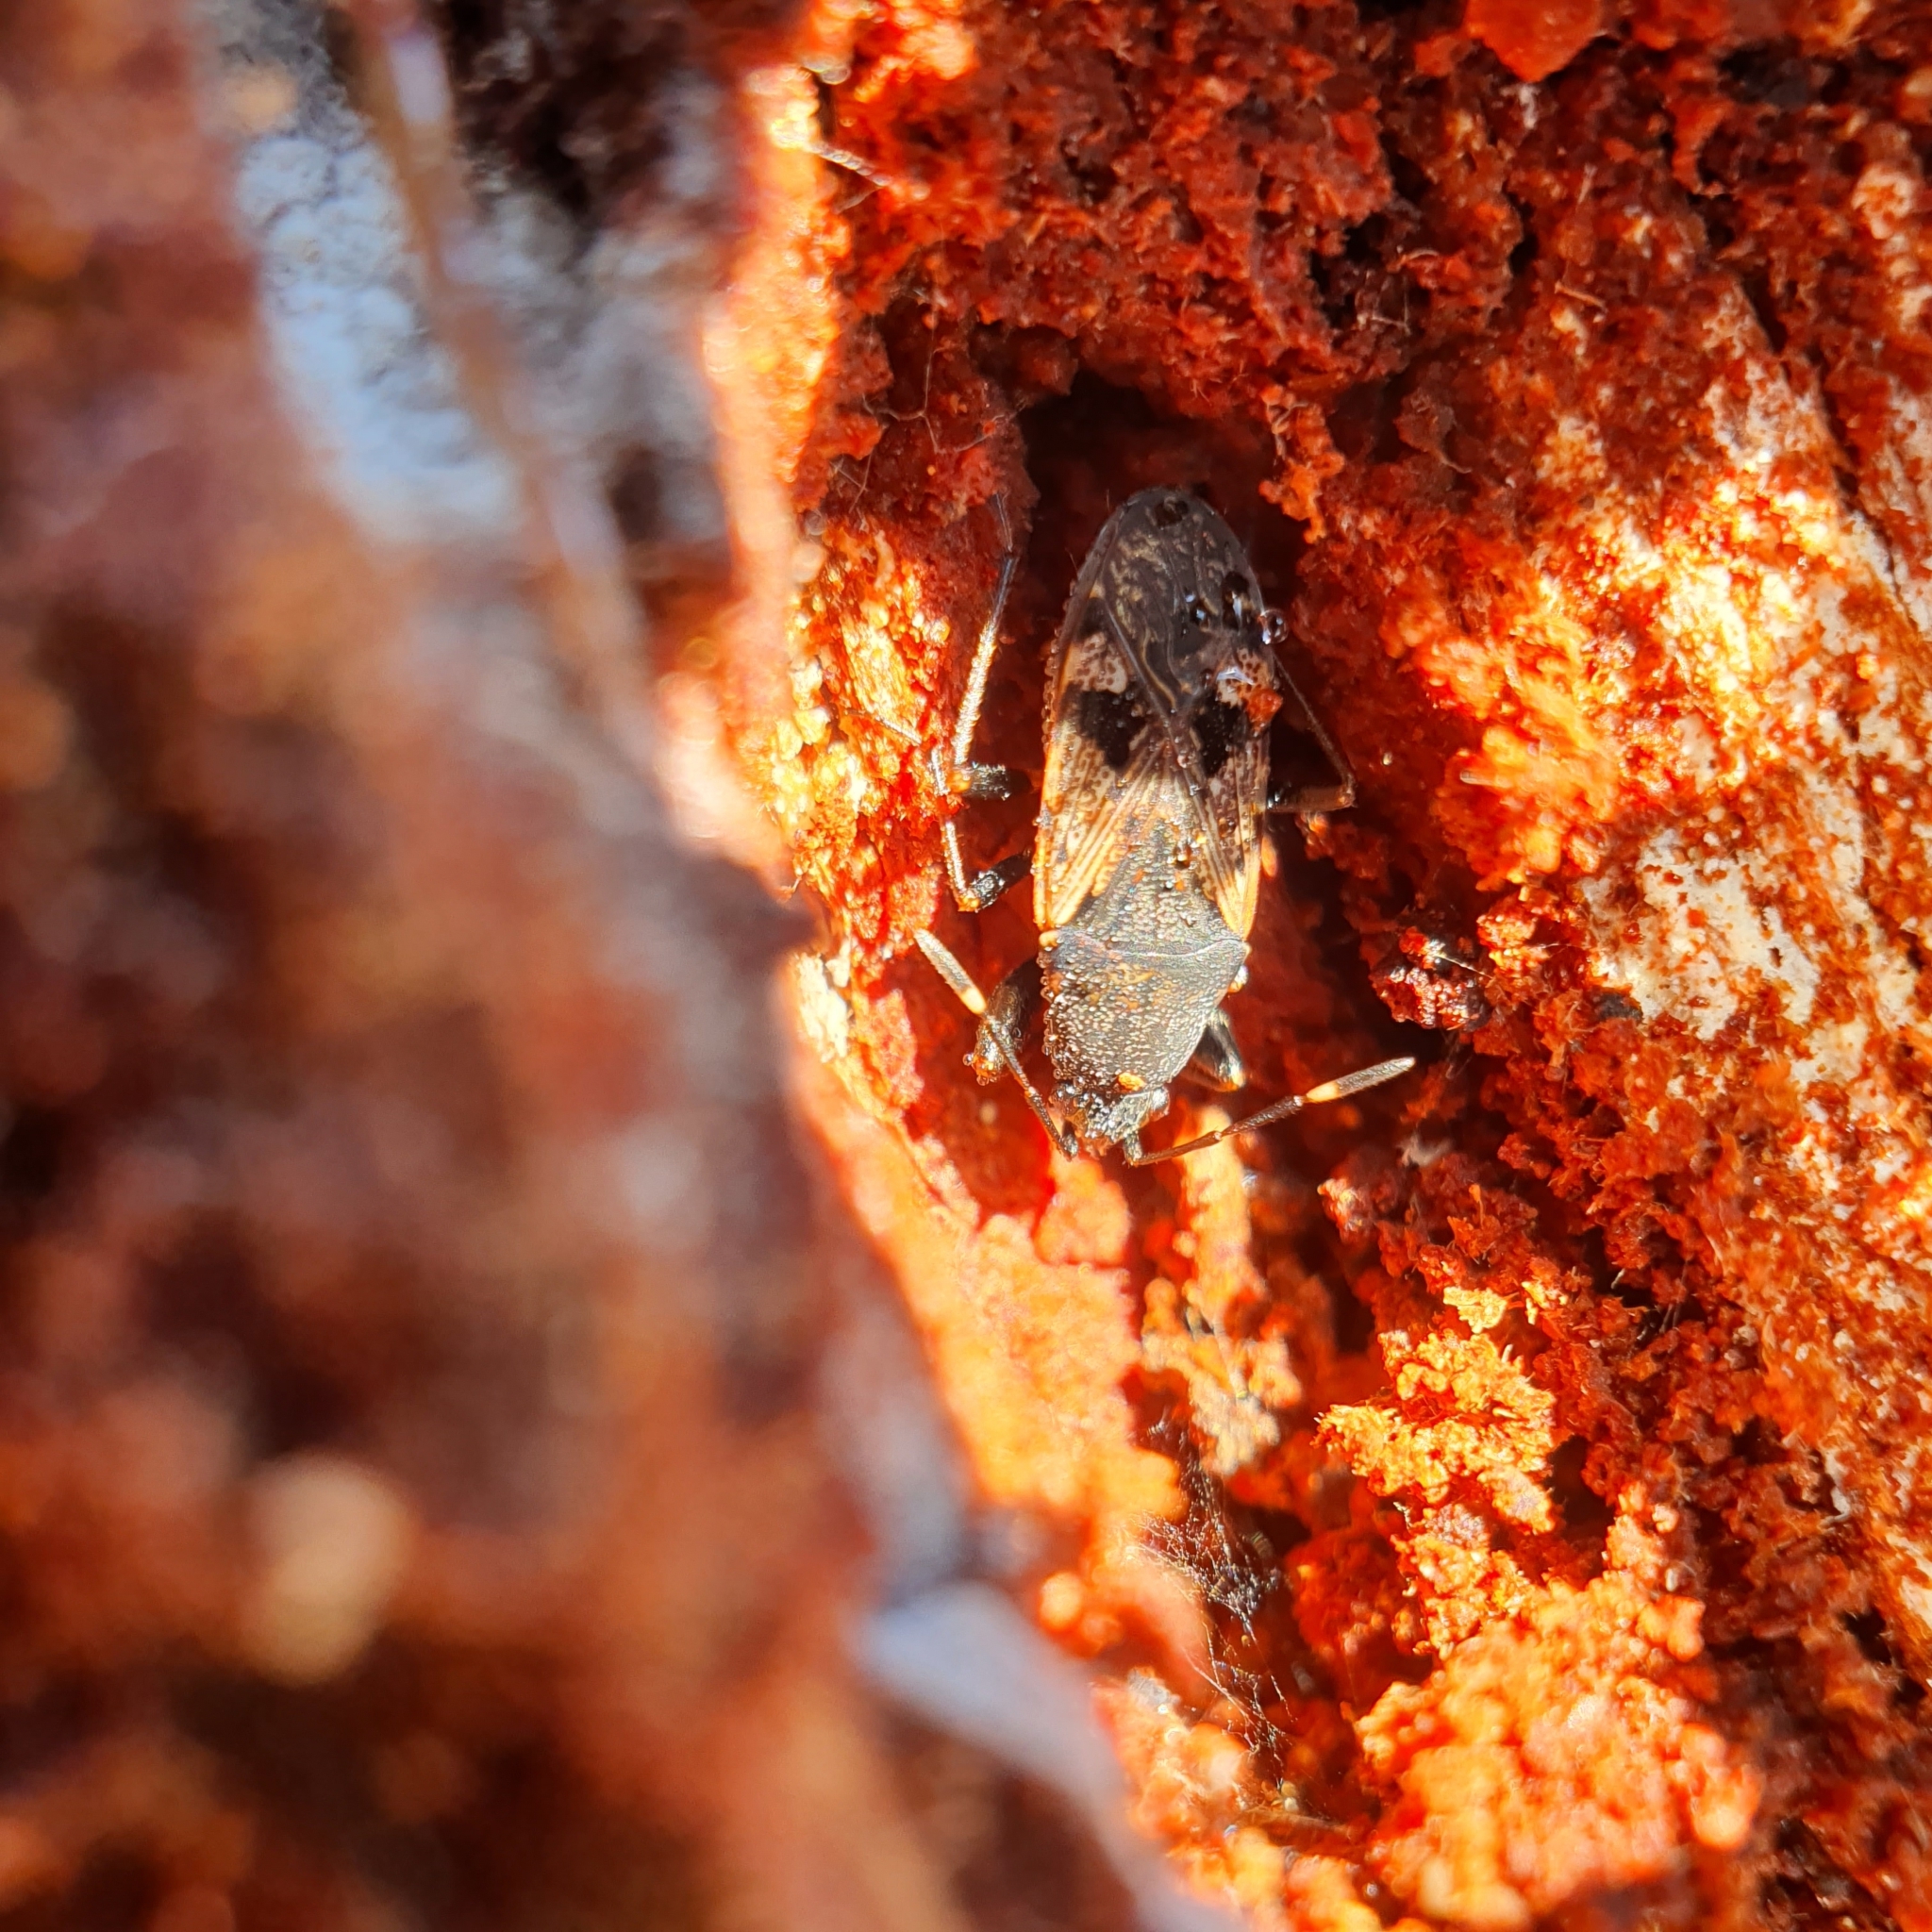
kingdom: Animalia
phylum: Arthropoda
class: Insecta
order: Hemiptera
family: Rhyparochromidae
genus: Euander
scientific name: Euander lacertosus
